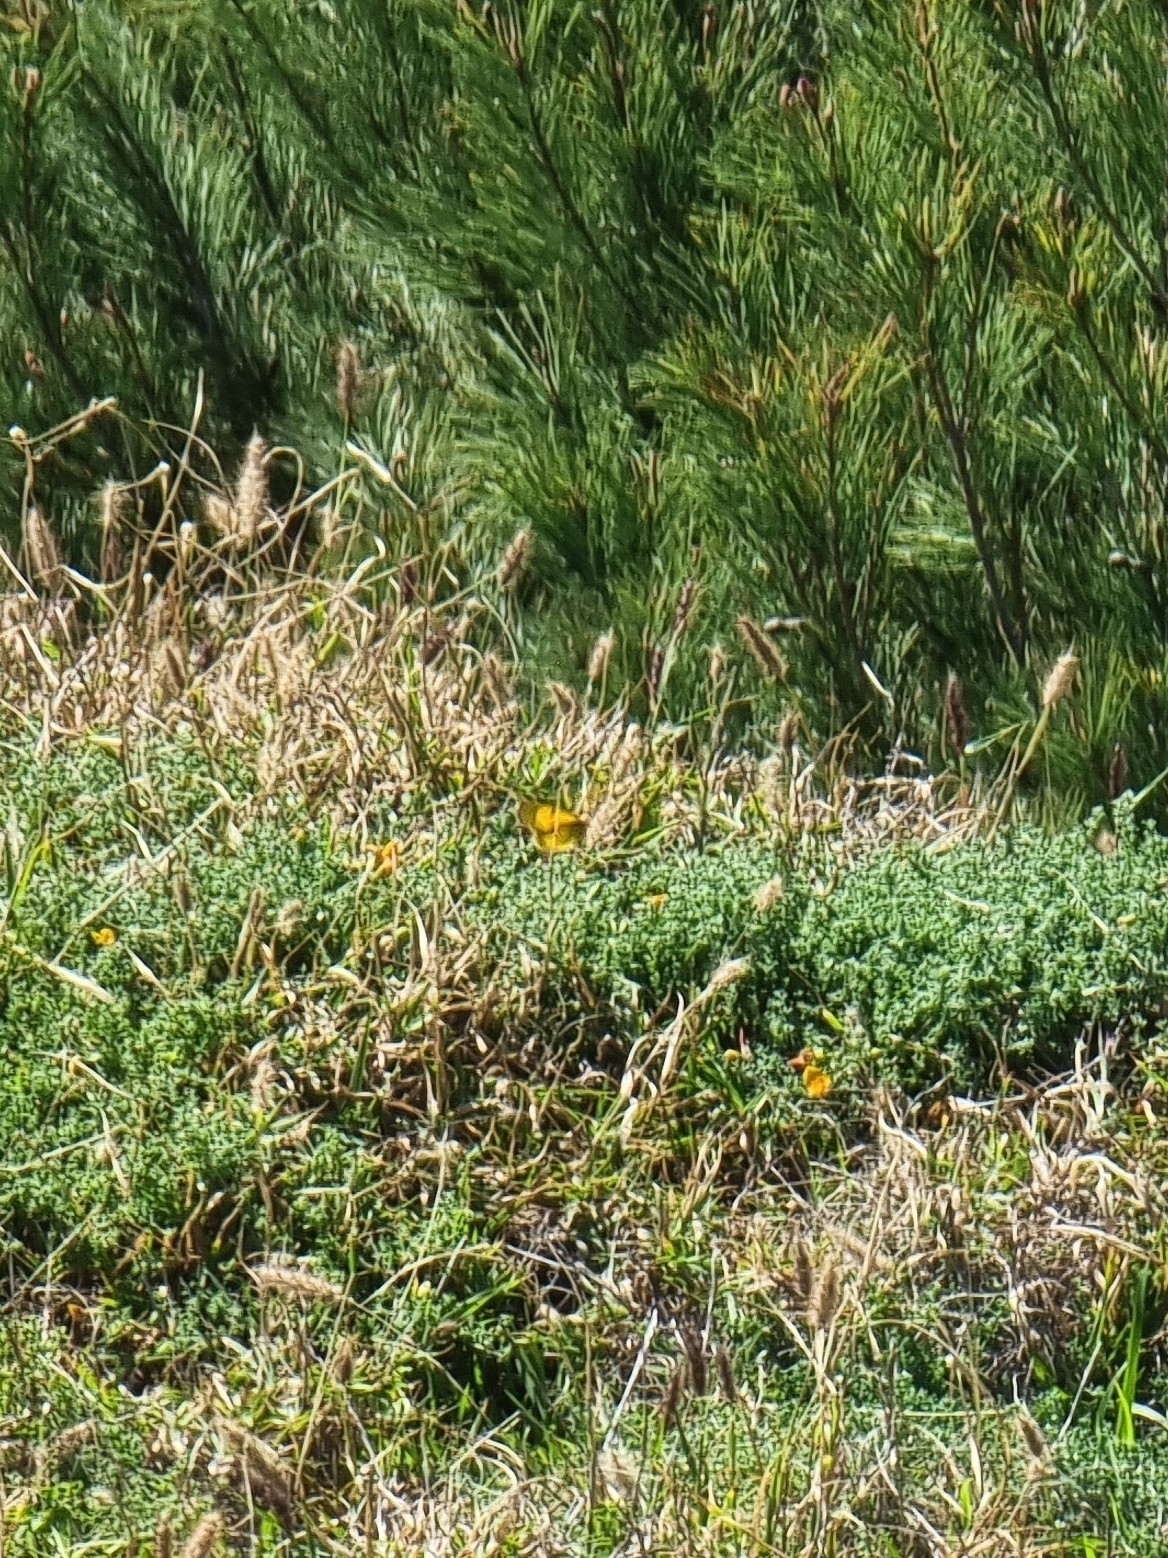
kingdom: Animalia
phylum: Arthropoda
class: Insecta
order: Lepidoptera
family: Pieridae
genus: Colias
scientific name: Colias croceus
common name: Clouded yellow
